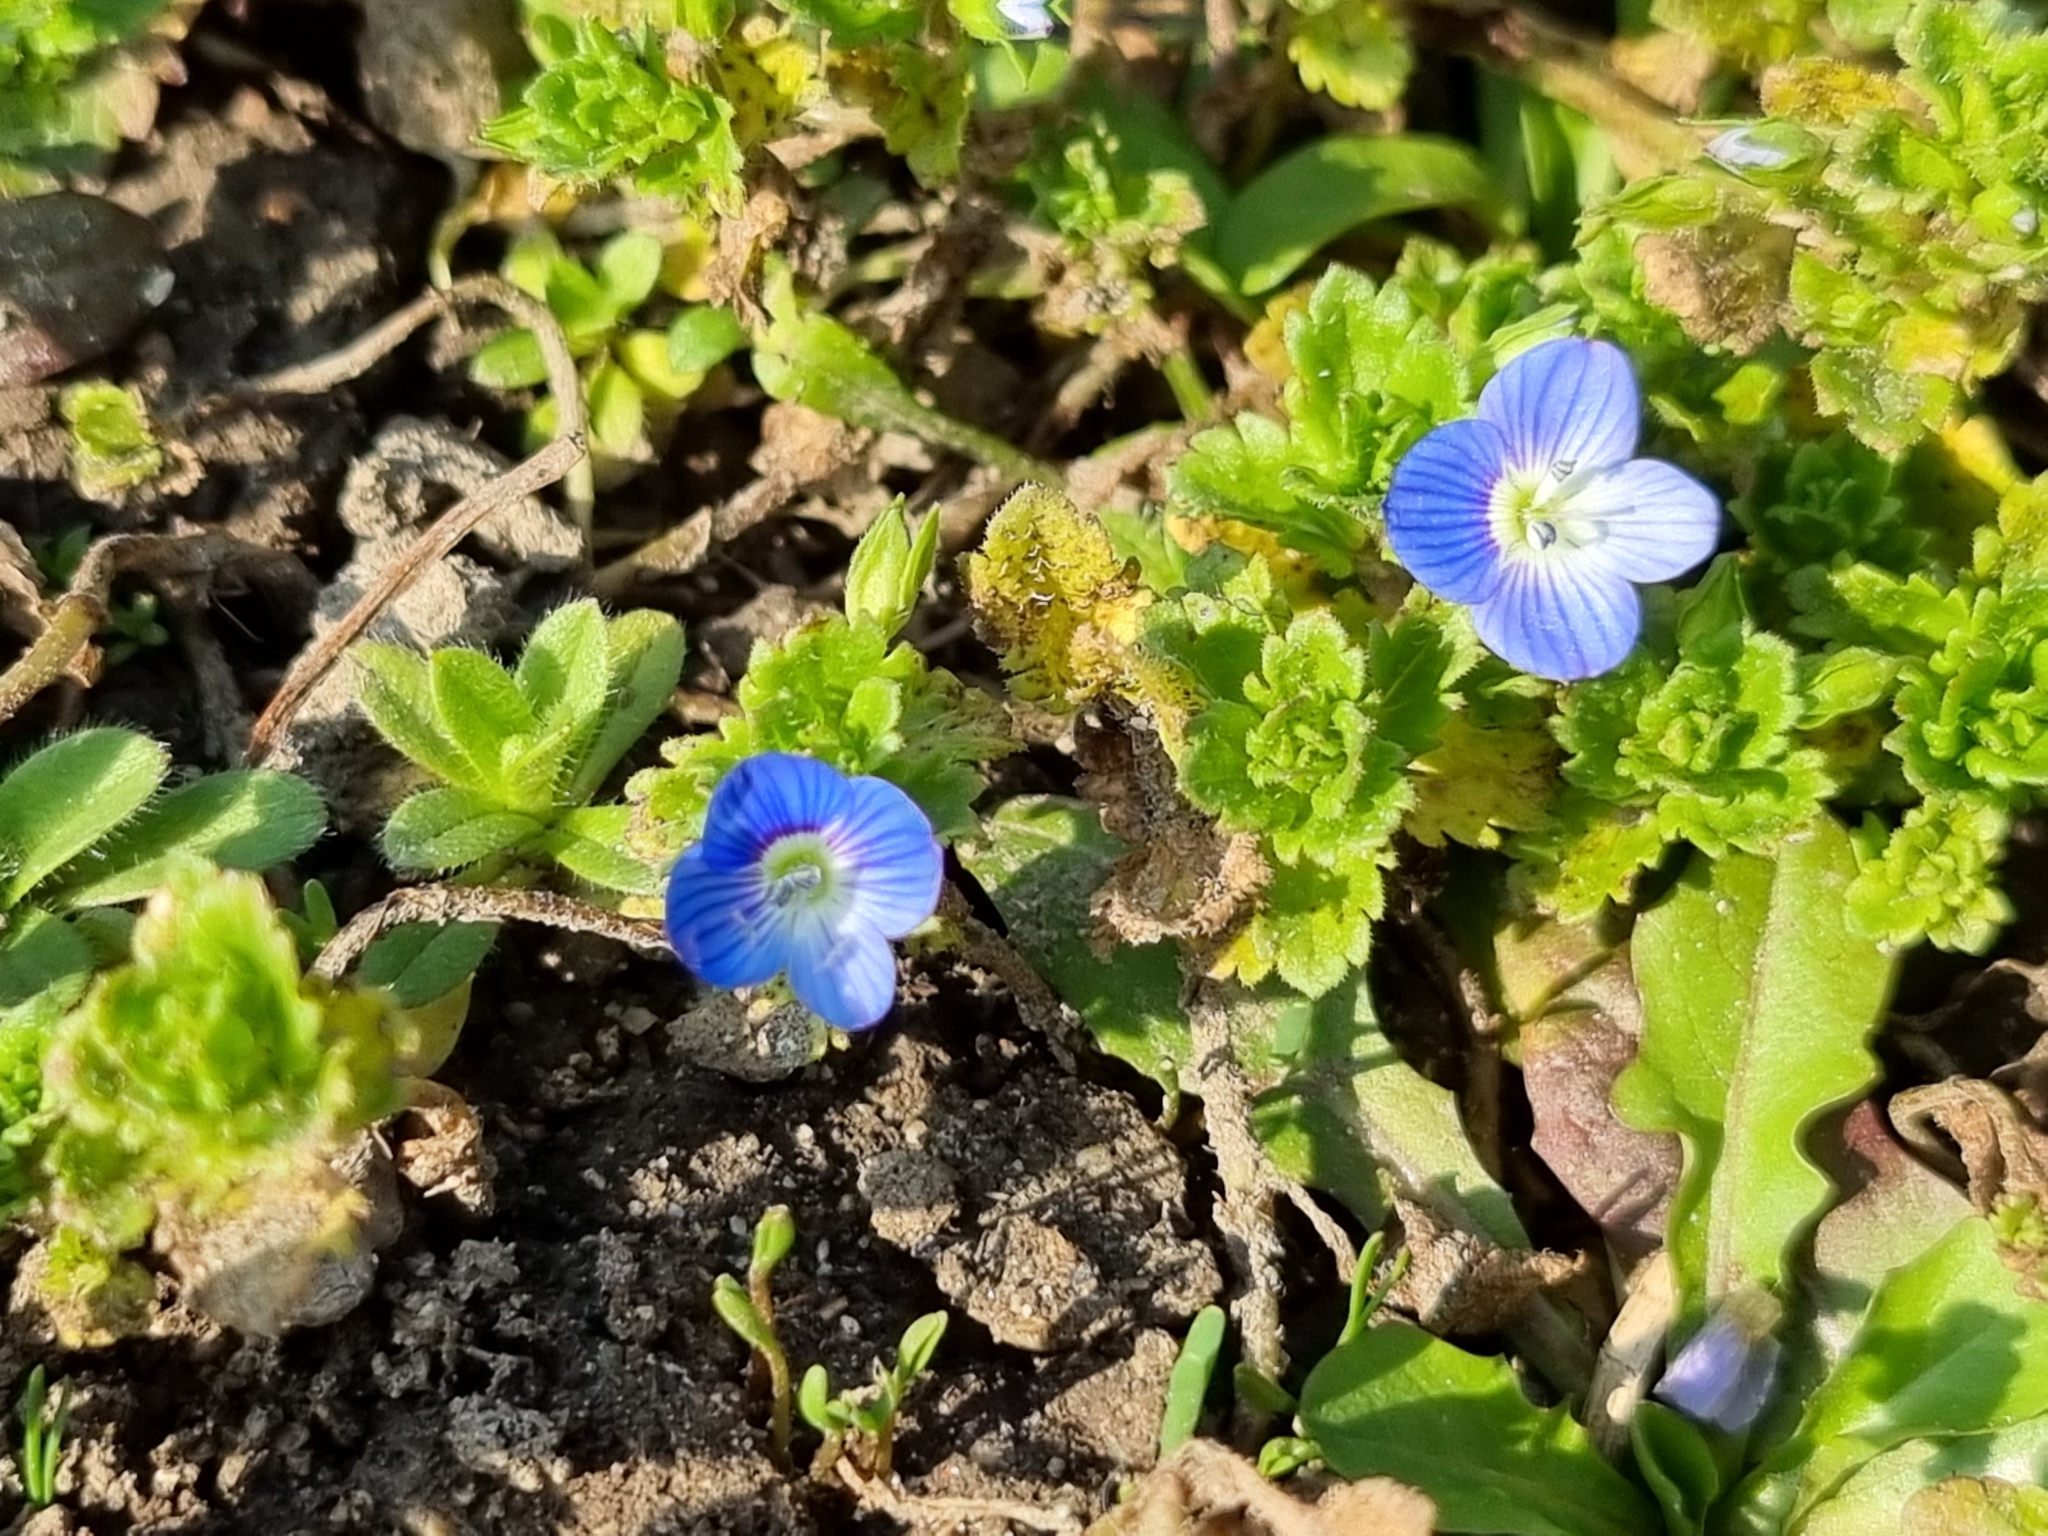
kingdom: Plantae
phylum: Tracheophyta
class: Magnoliopsida
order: Lamiales
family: Plantaginaceae
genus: Veronica
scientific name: Veronica persica
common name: Common field-speedwell
